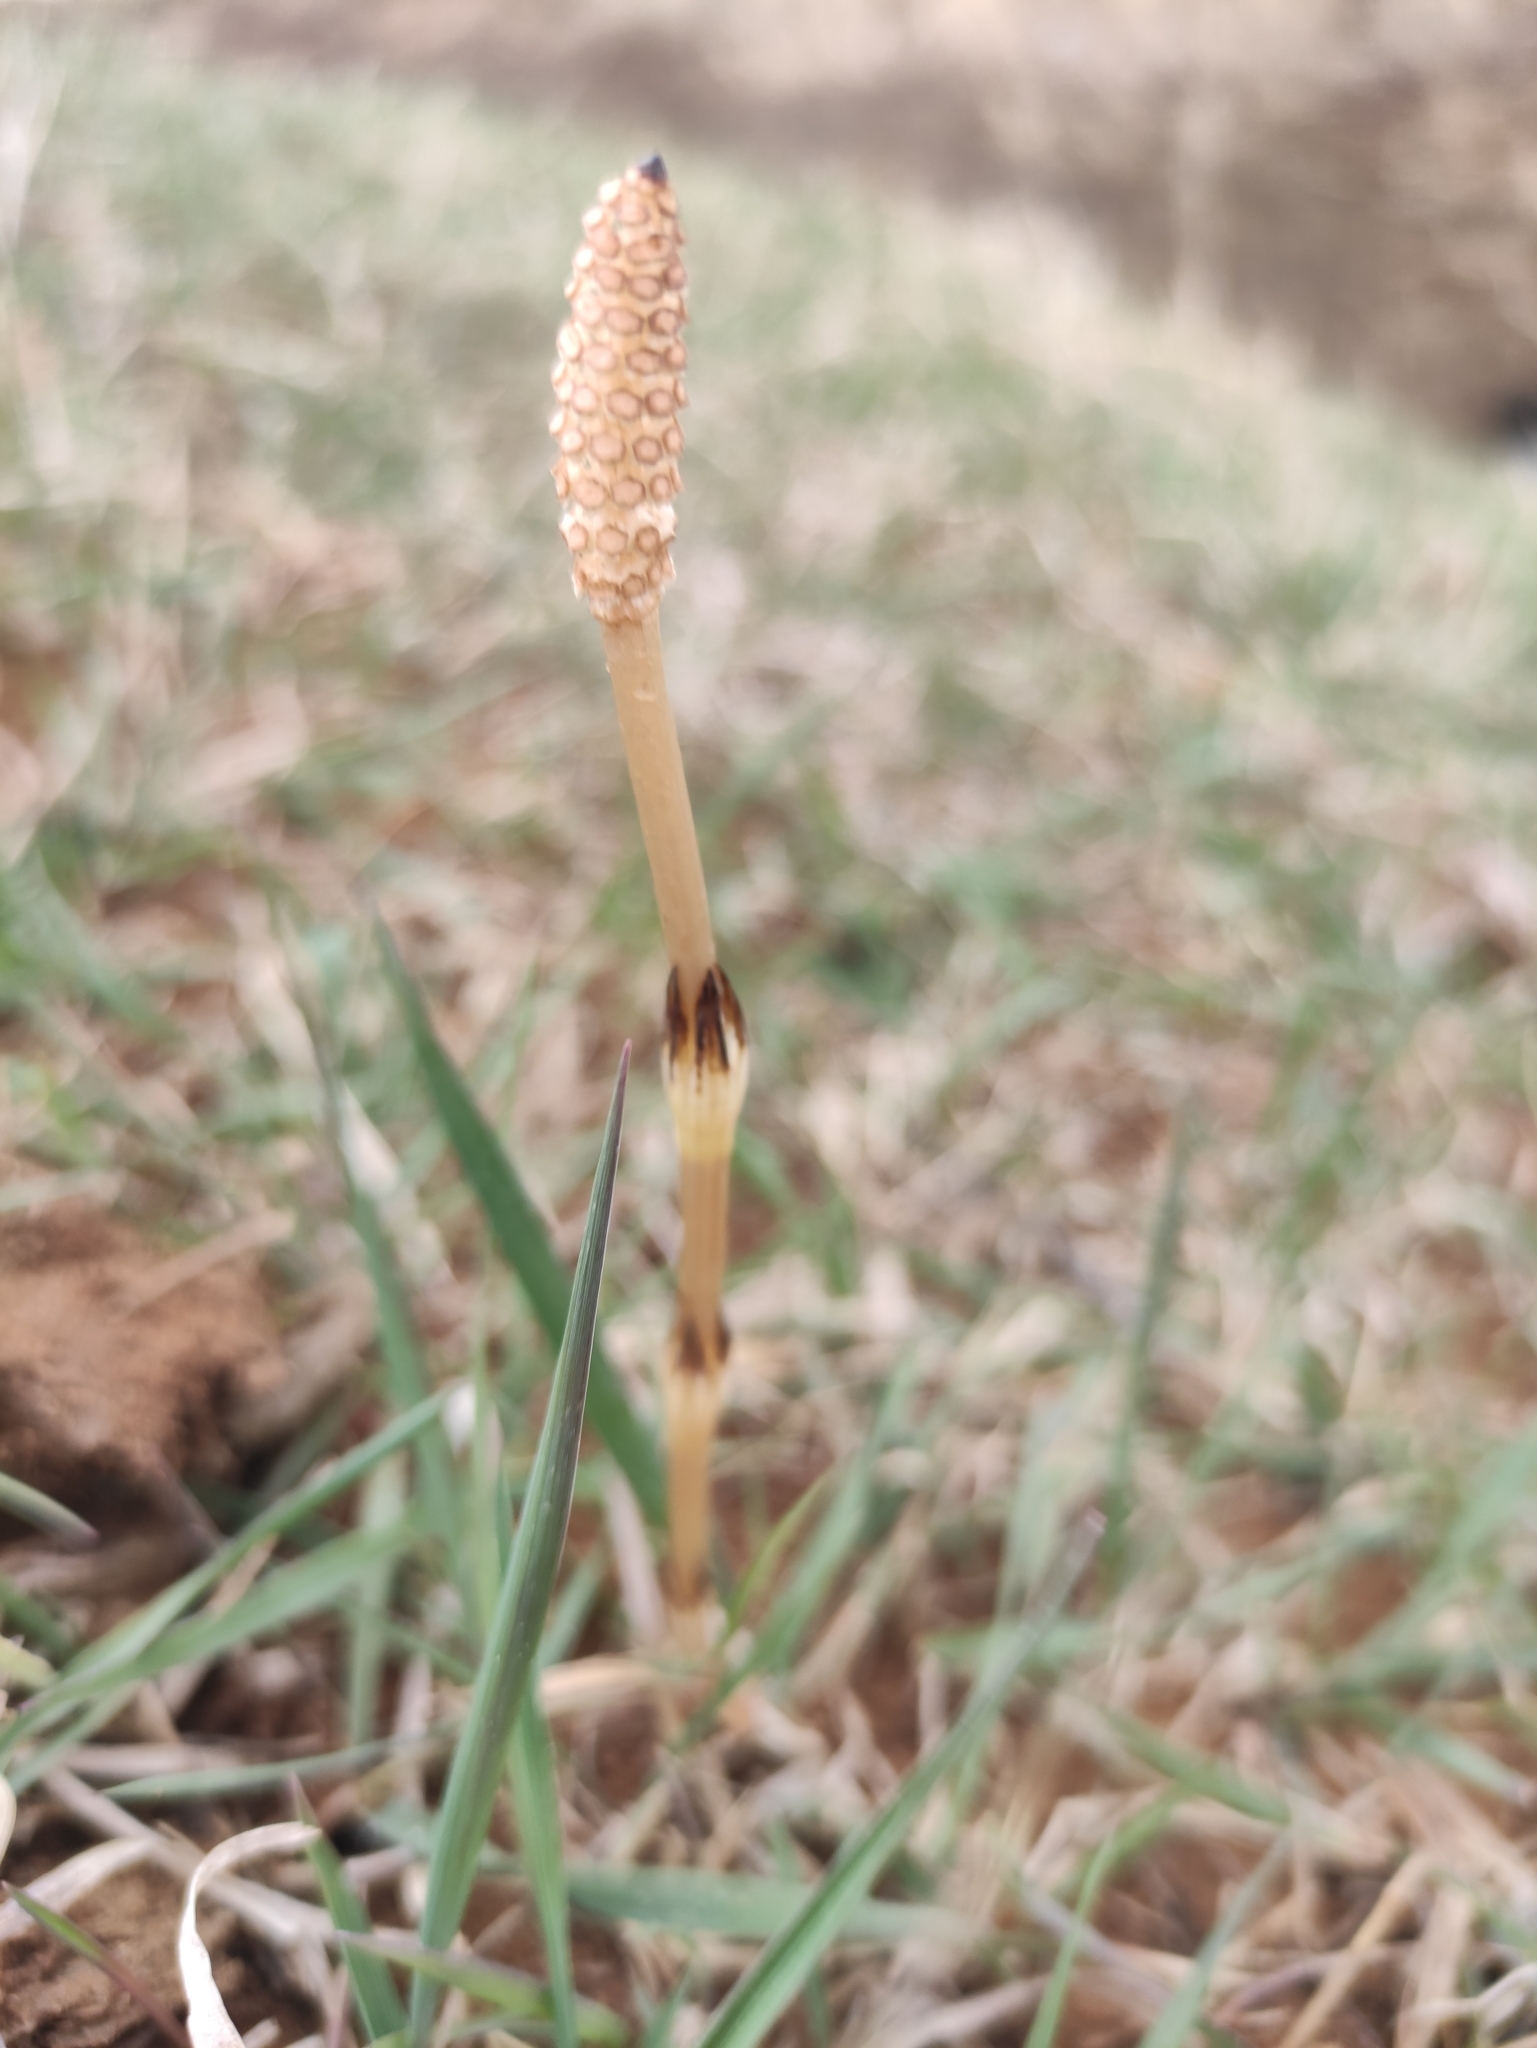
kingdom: Plantae
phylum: Tracheophyta
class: Polypodiopsida
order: Equisetales
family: Equisetaceae
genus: Equisetum
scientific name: Equisetum arvense
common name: Field horsetail
